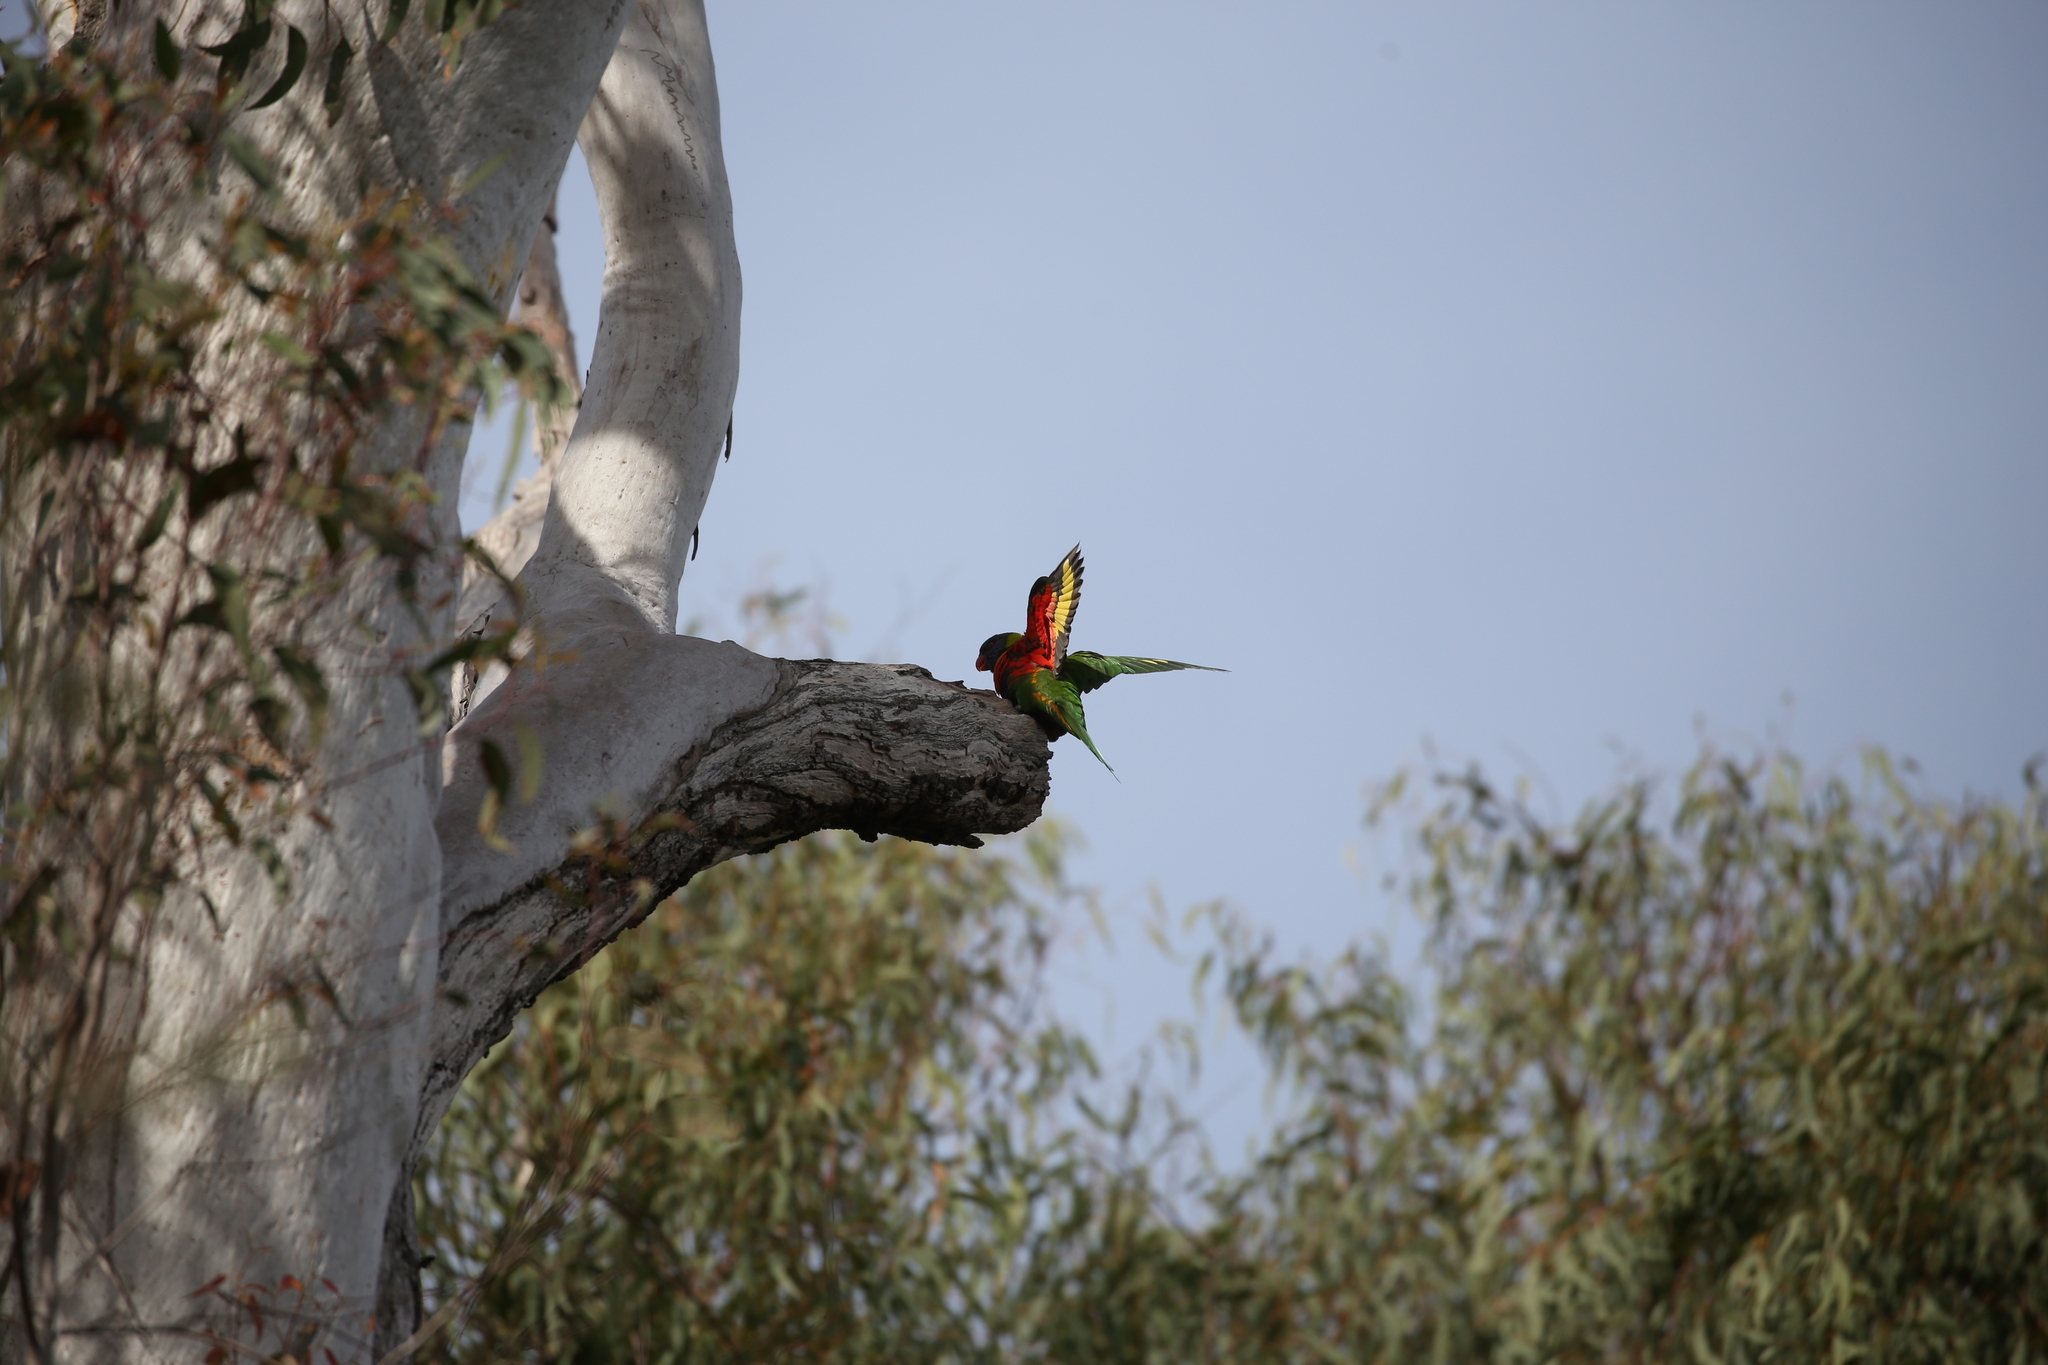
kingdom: Animalia
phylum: Chordata
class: Aves
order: Psittaciformes
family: Psittacidae
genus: Trichoglossus
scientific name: Trichoglossus haematodus
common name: Coconut lorikeet
